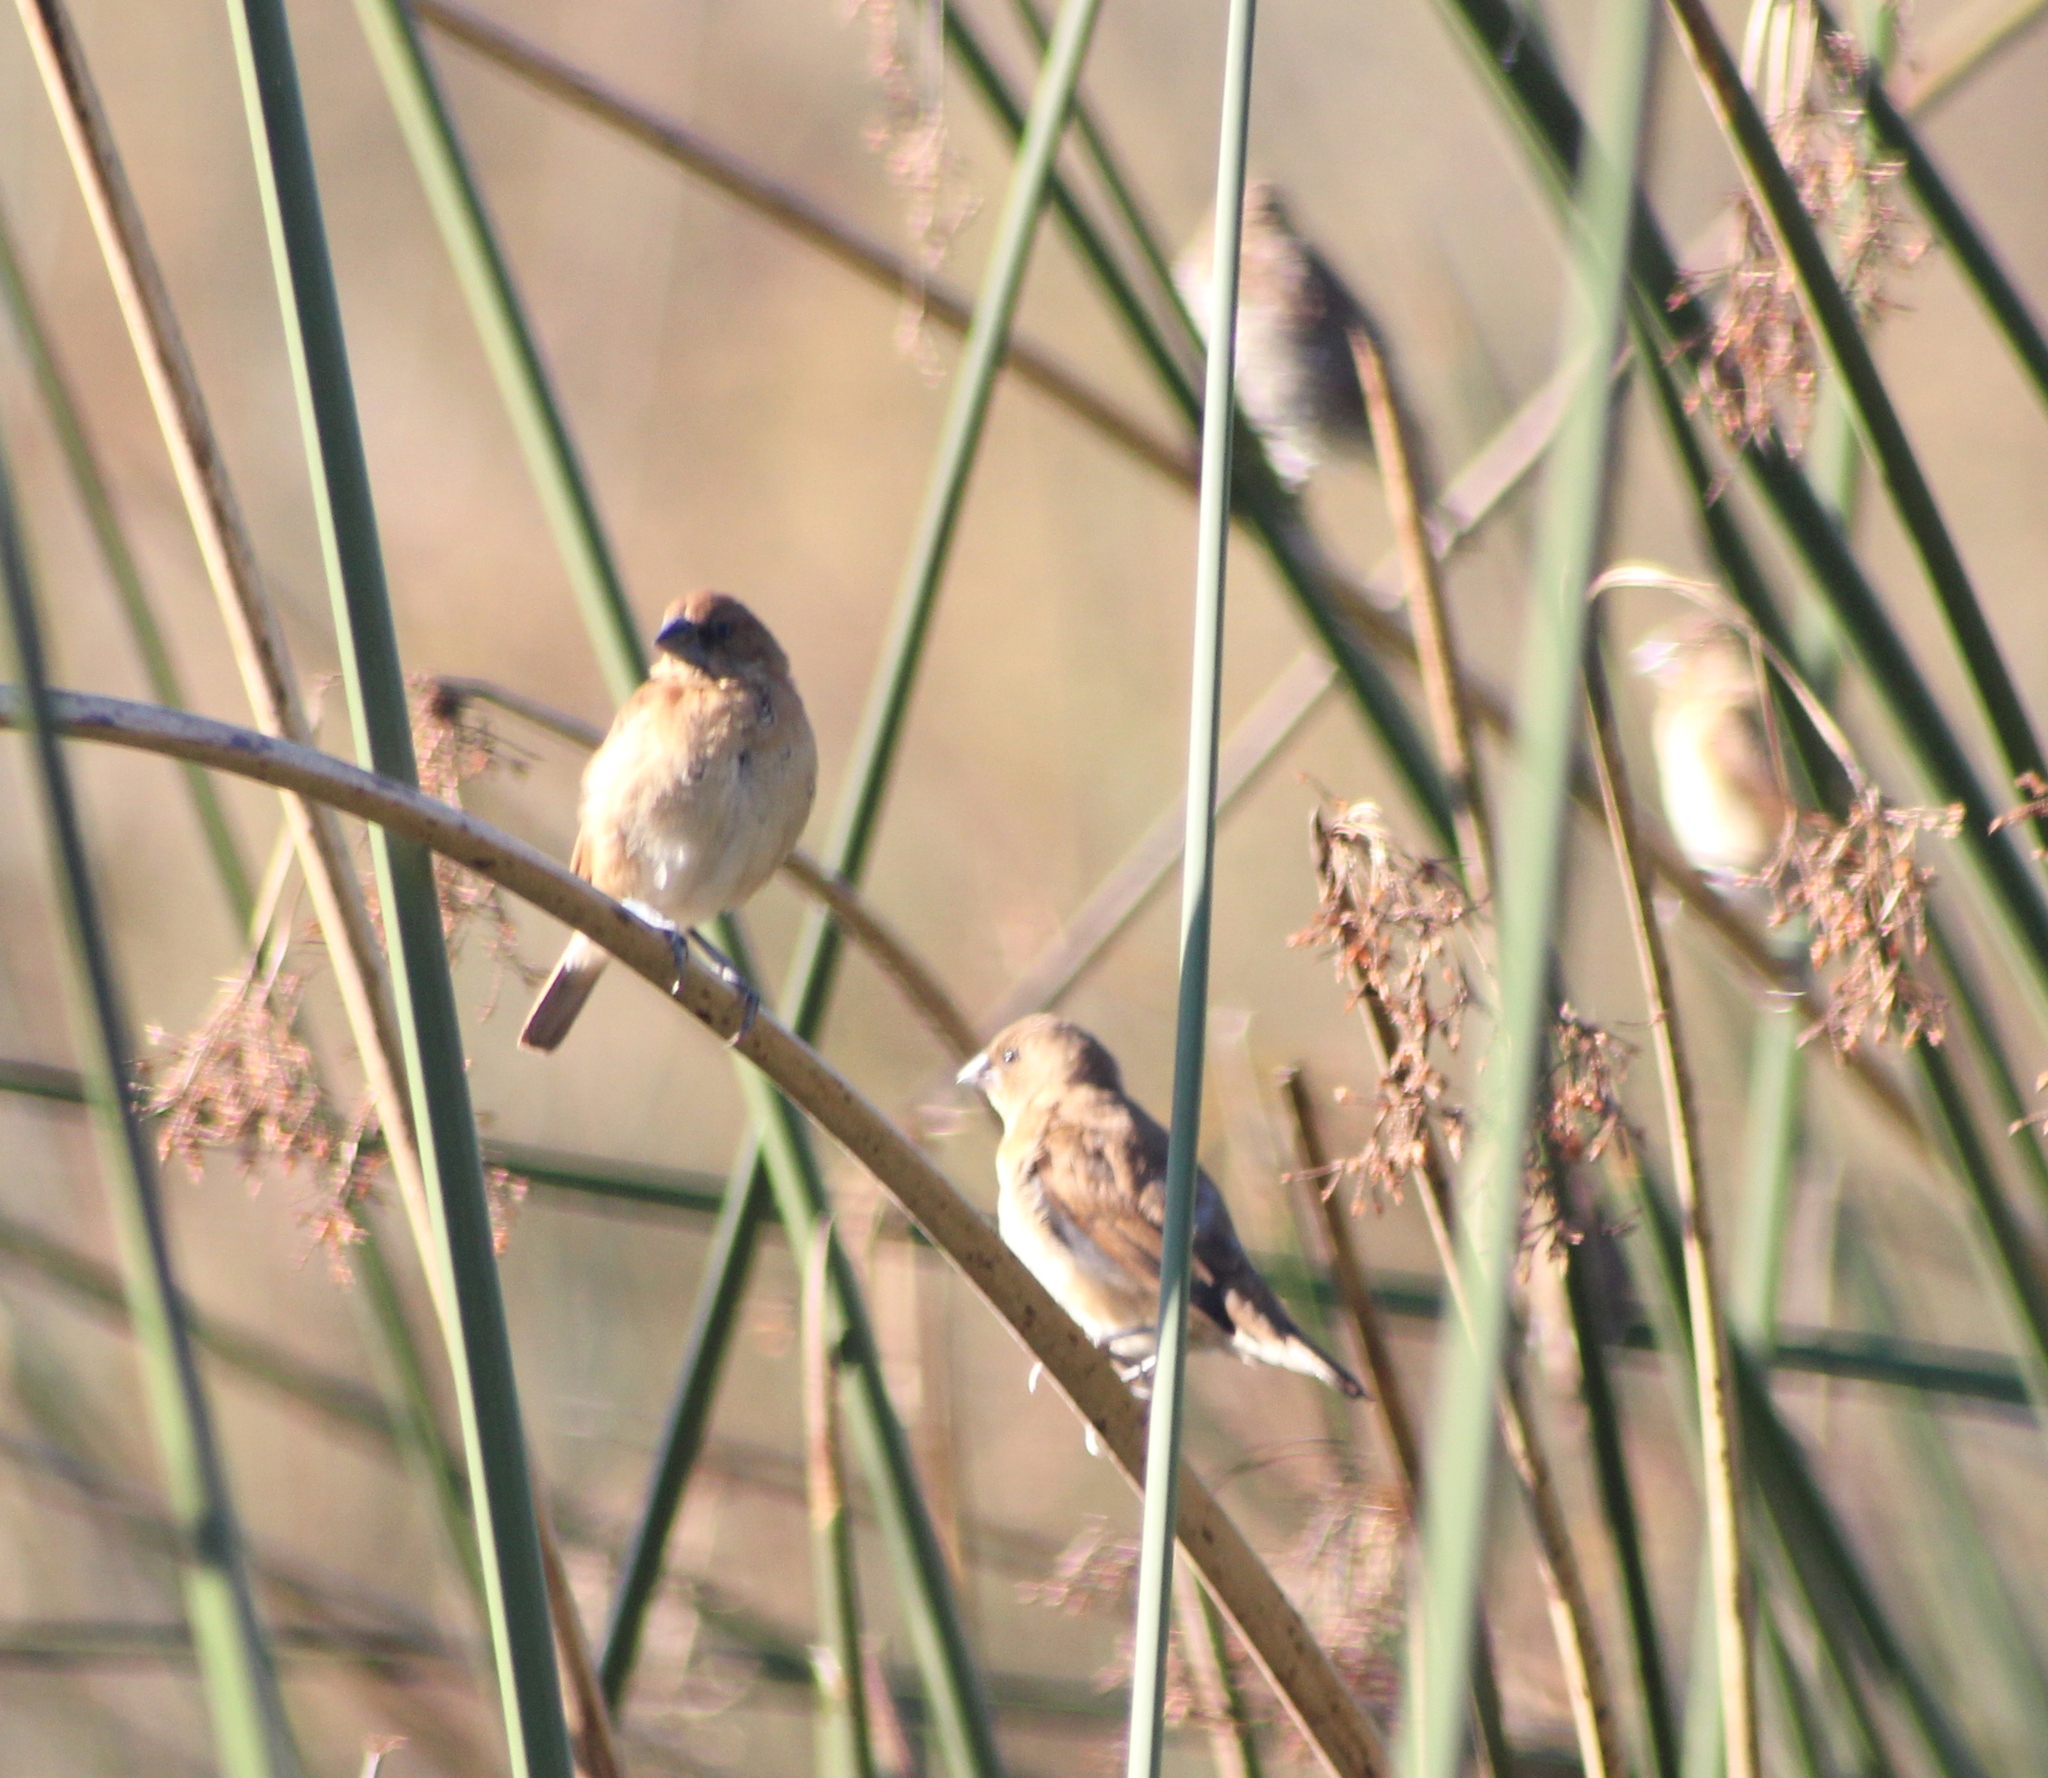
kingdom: Animalia
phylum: Chordata
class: Aves
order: Passeriformes
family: Estrildidae
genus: Lonchura
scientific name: Lonchura punctulata
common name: Scaly-breasted munia
